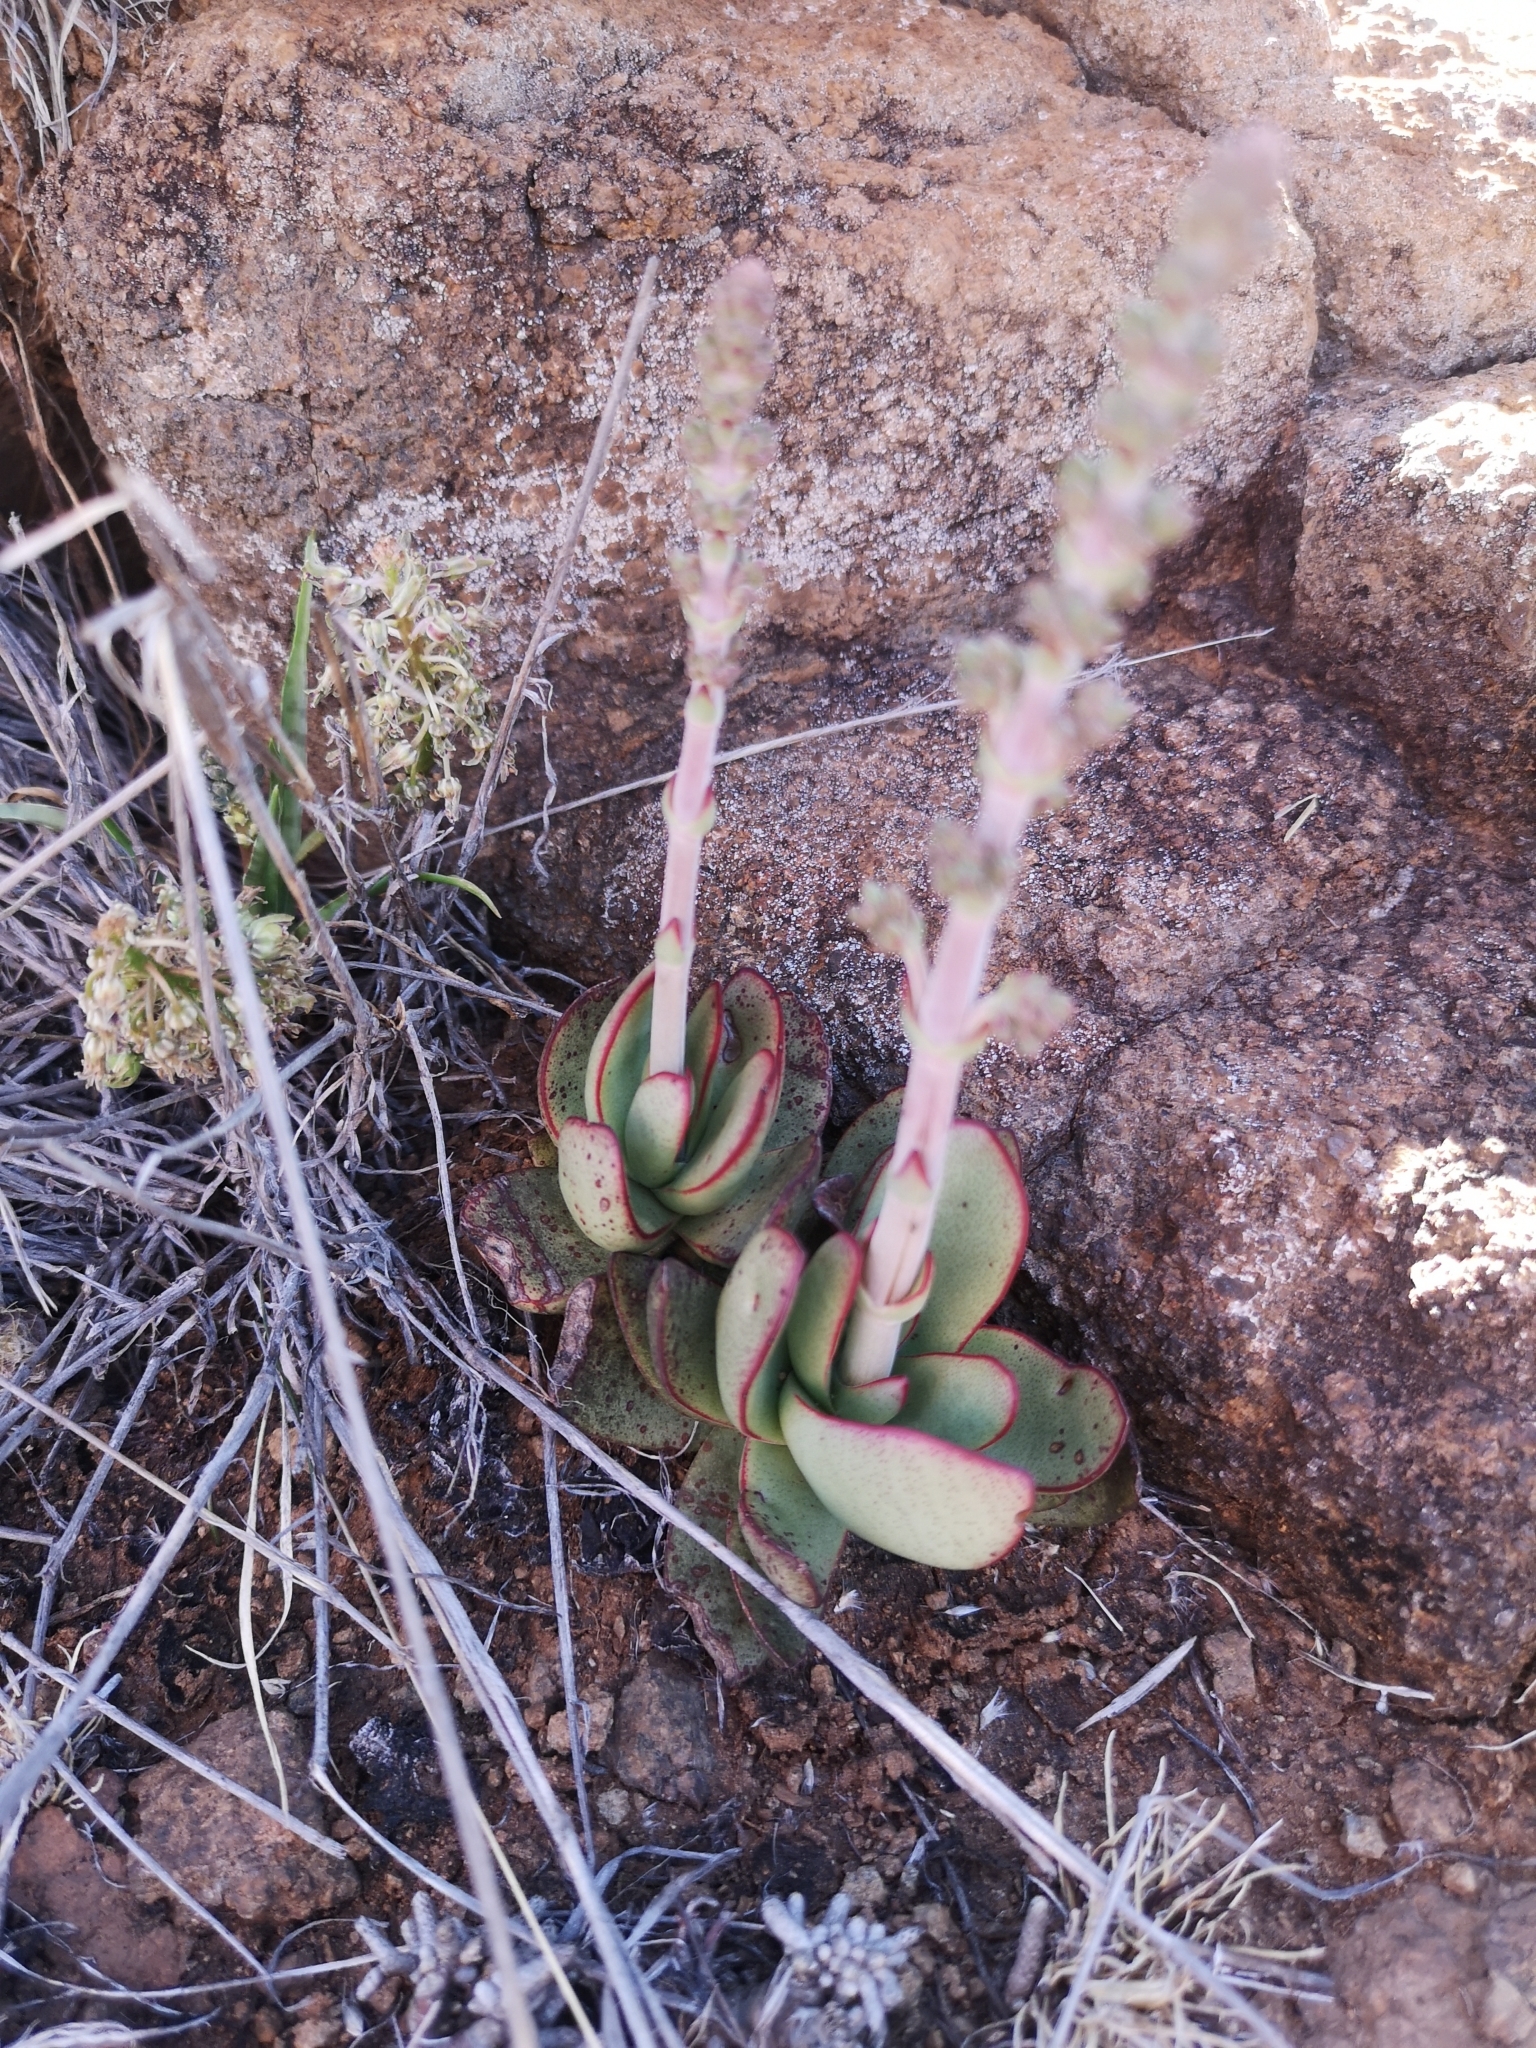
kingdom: Plantae
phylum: Tracheophyta
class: Magnoliopsida
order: Saxifragales
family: Crassulaceae
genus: Crassula
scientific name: Crassula nudicaulis
